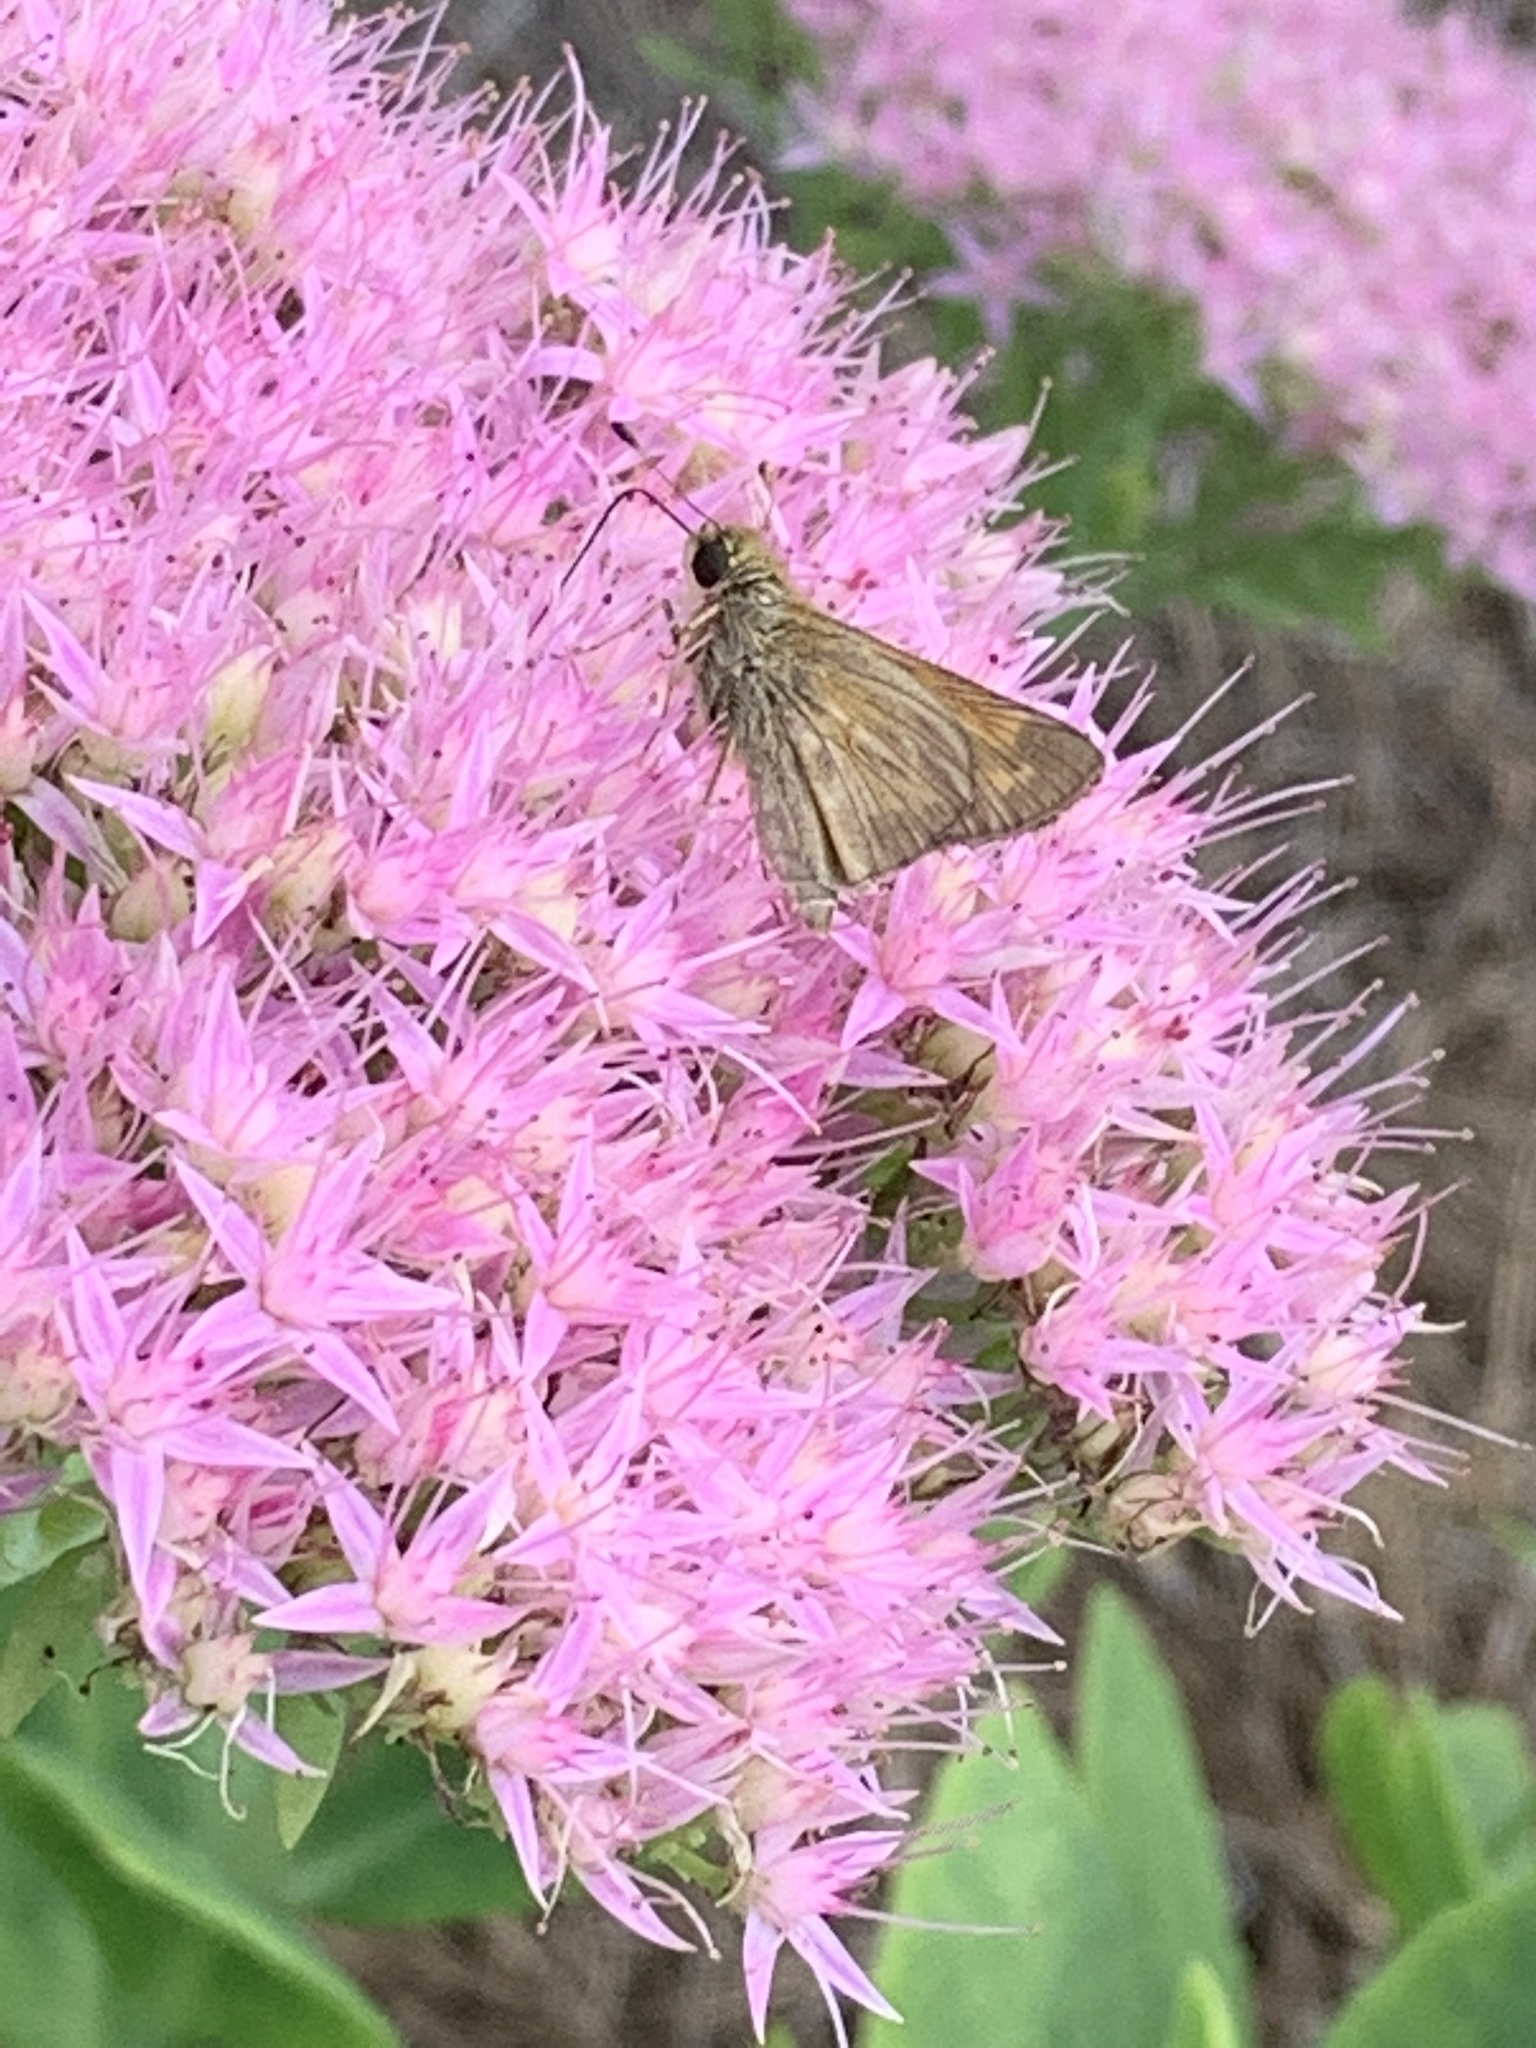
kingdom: Animalia
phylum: Arthropoda
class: Insecta
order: Lepidoptera
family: Hesperiidae
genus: Atalopedes
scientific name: Atalopedes
